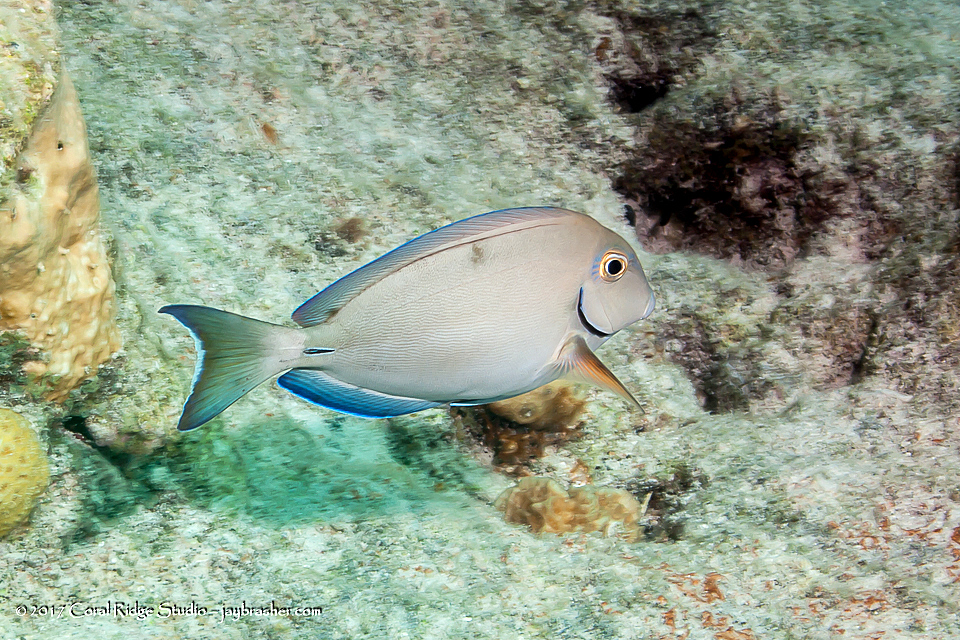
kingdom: Animalia
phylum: Chordata
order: Perciformes
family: Acanthuridae
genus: Acanthurus
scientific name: Acanthurus bahianus
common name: Ocean surgeon
